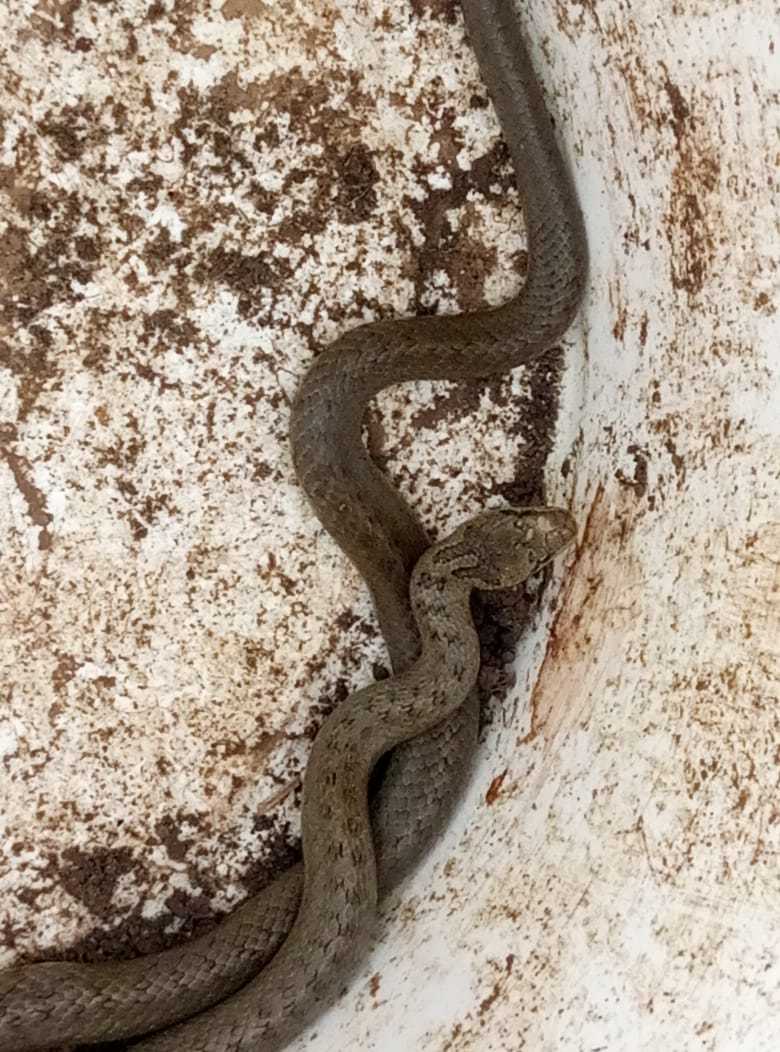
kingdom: Animalia
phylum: Chordata
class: Squamata
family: Colubridae
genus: Coronella
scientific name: Coronella austriaca
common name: Smooth snake
